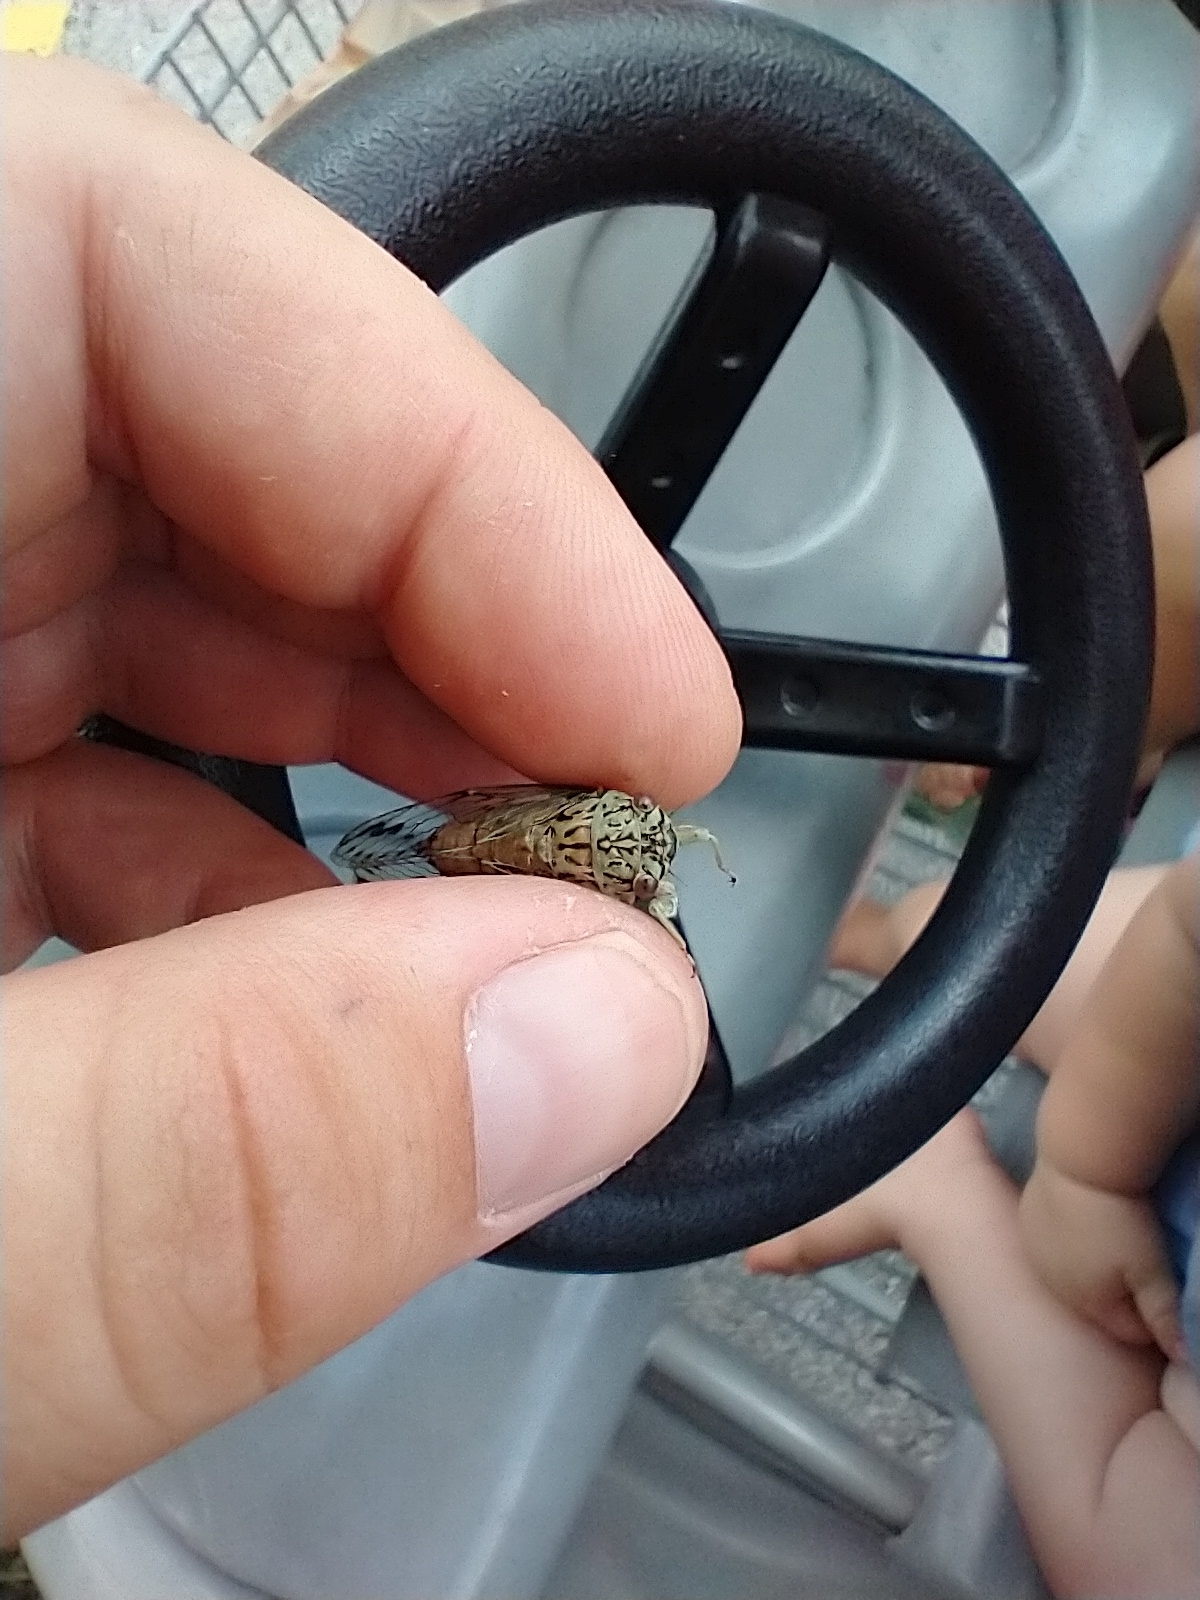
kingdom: Animalia
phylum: Arthropoda
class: Insecta
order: Hemiptera
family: Cicadidae
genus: Neocicada
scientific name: Neocicada hieroglyphica
